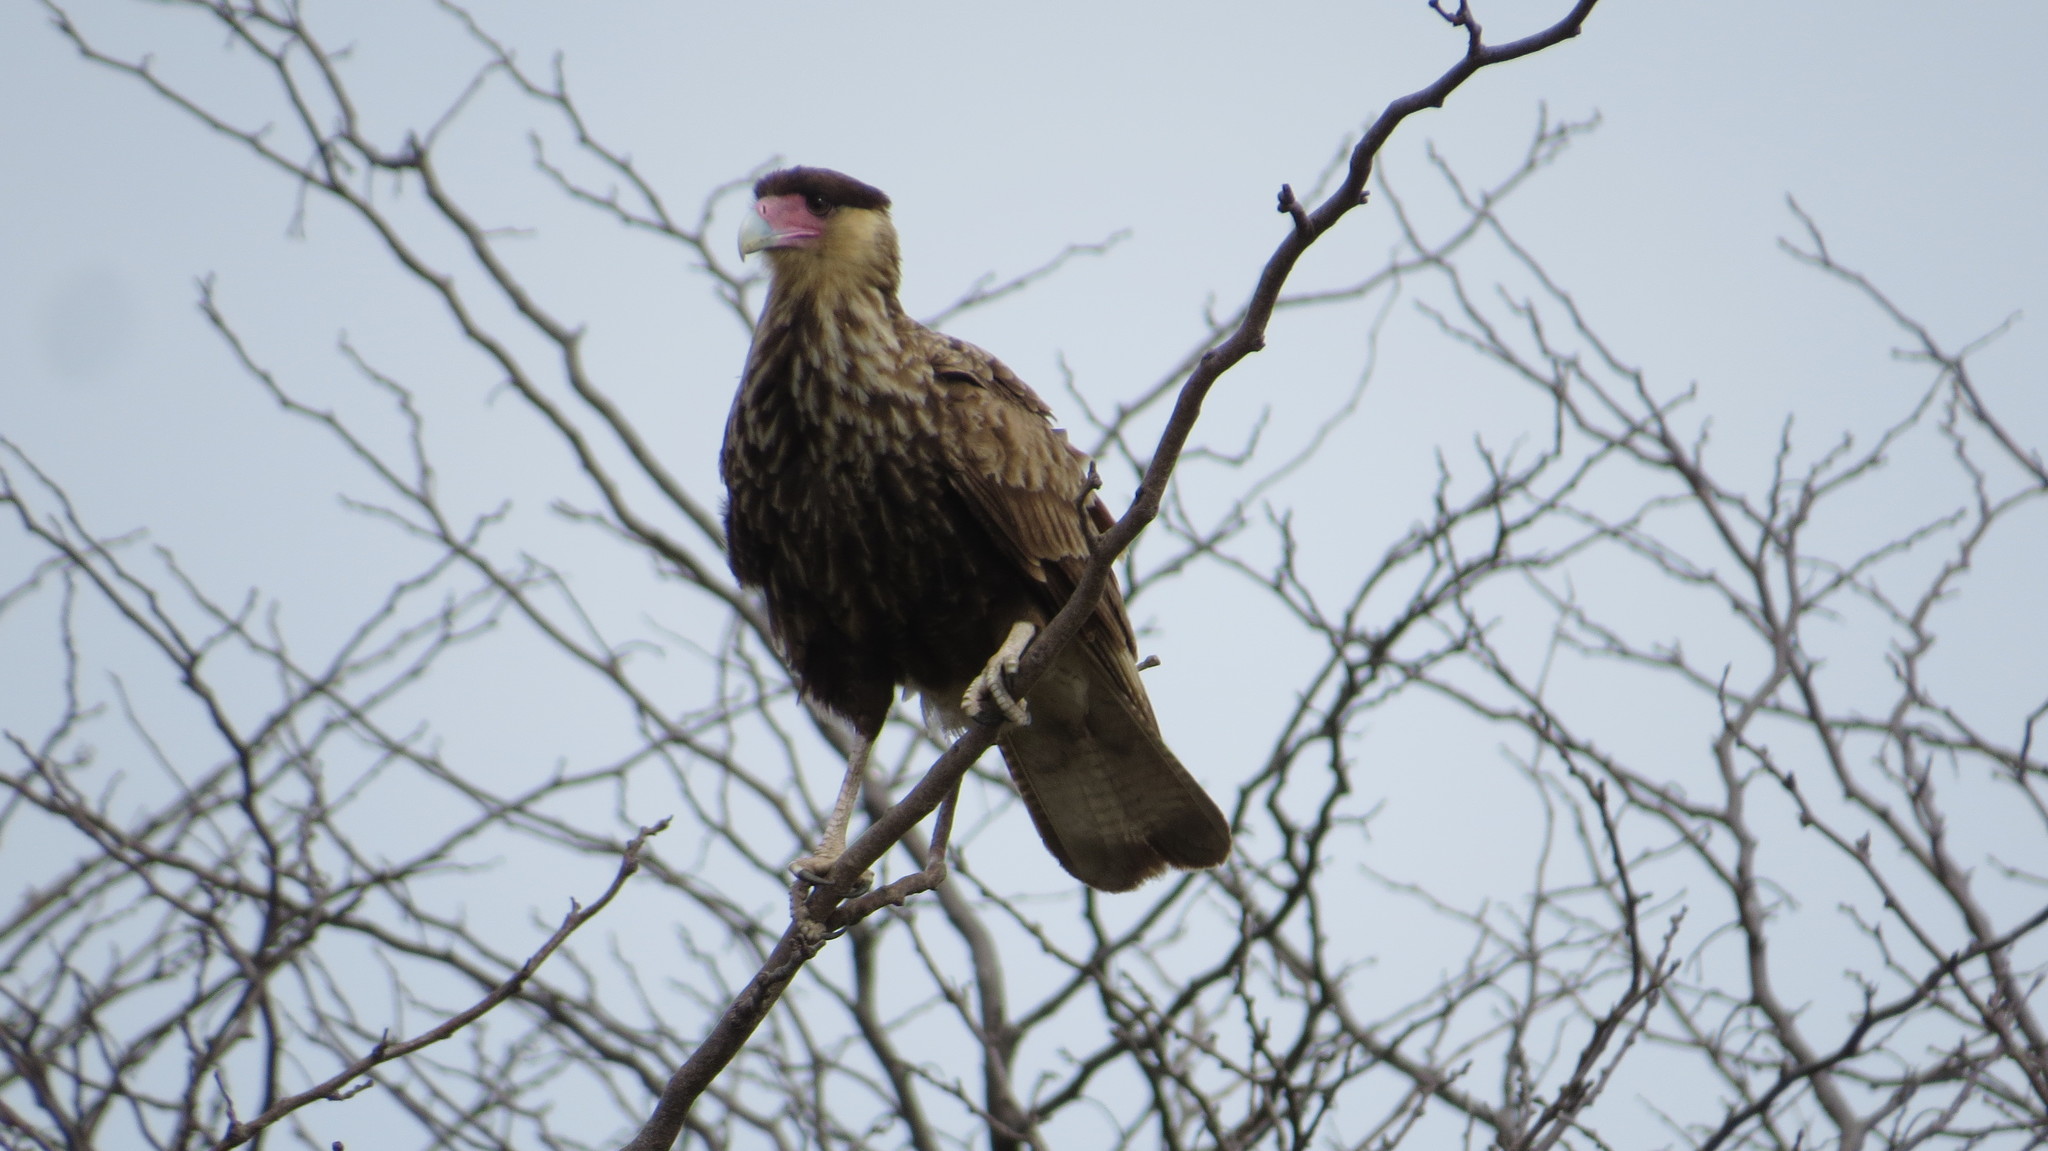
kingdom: Animalia
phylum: Chordata
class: Aves
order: Falconiformes
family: Falconidae
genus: Caracara
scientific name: Caracara plancus
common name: Southern caracara
